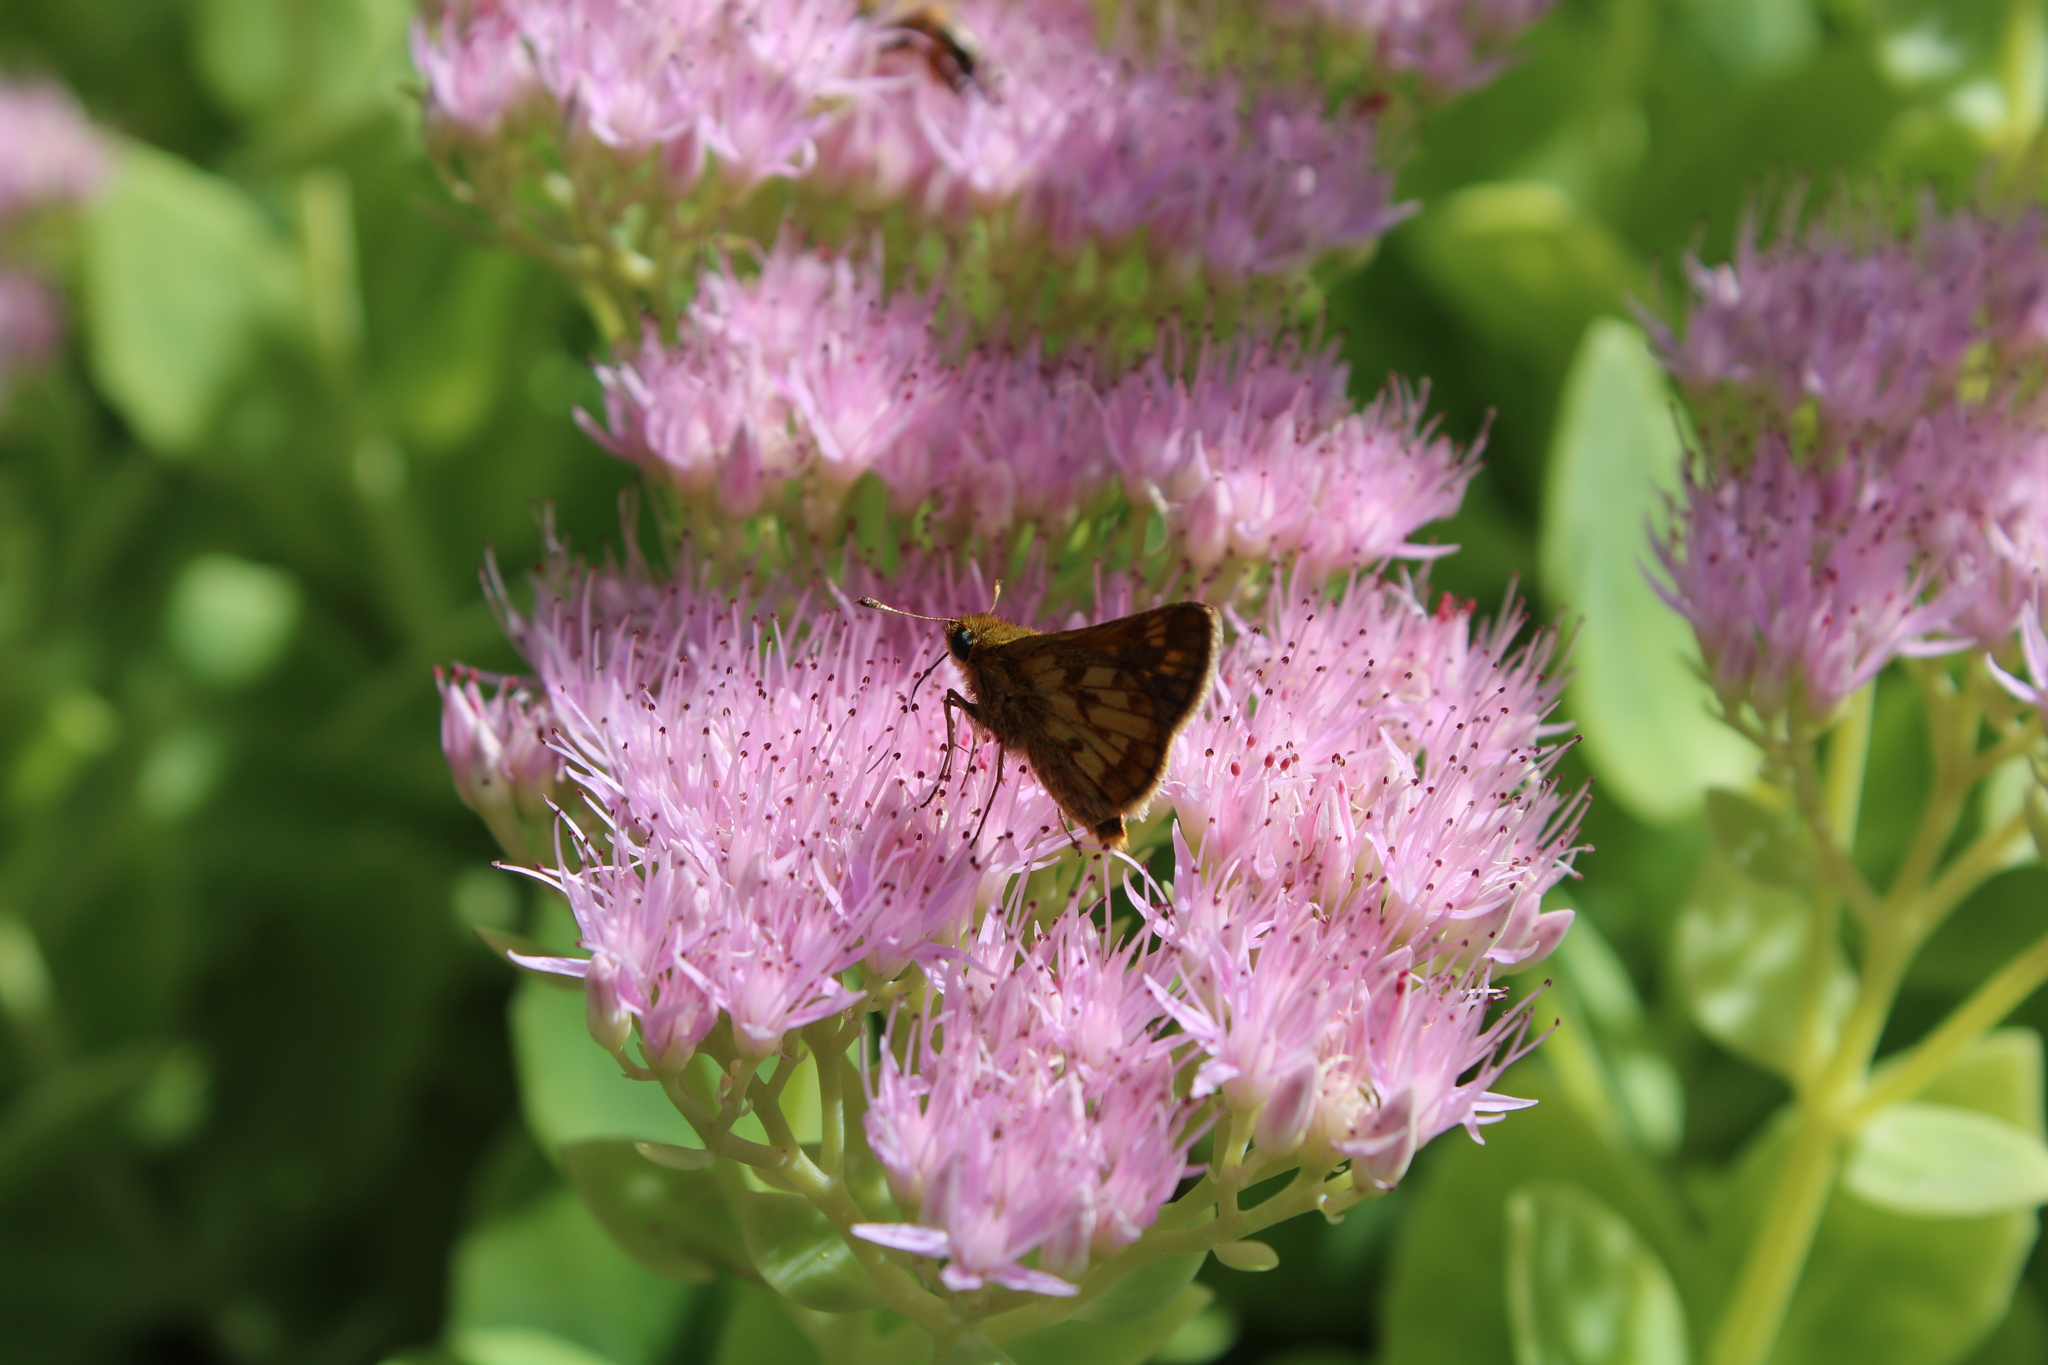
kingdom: Animalia
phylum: Arthropoda
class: Insecta
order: Lepidoptera
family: Hesperiidae
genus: Polites
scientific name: Polites coras
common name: Peck's skipper
